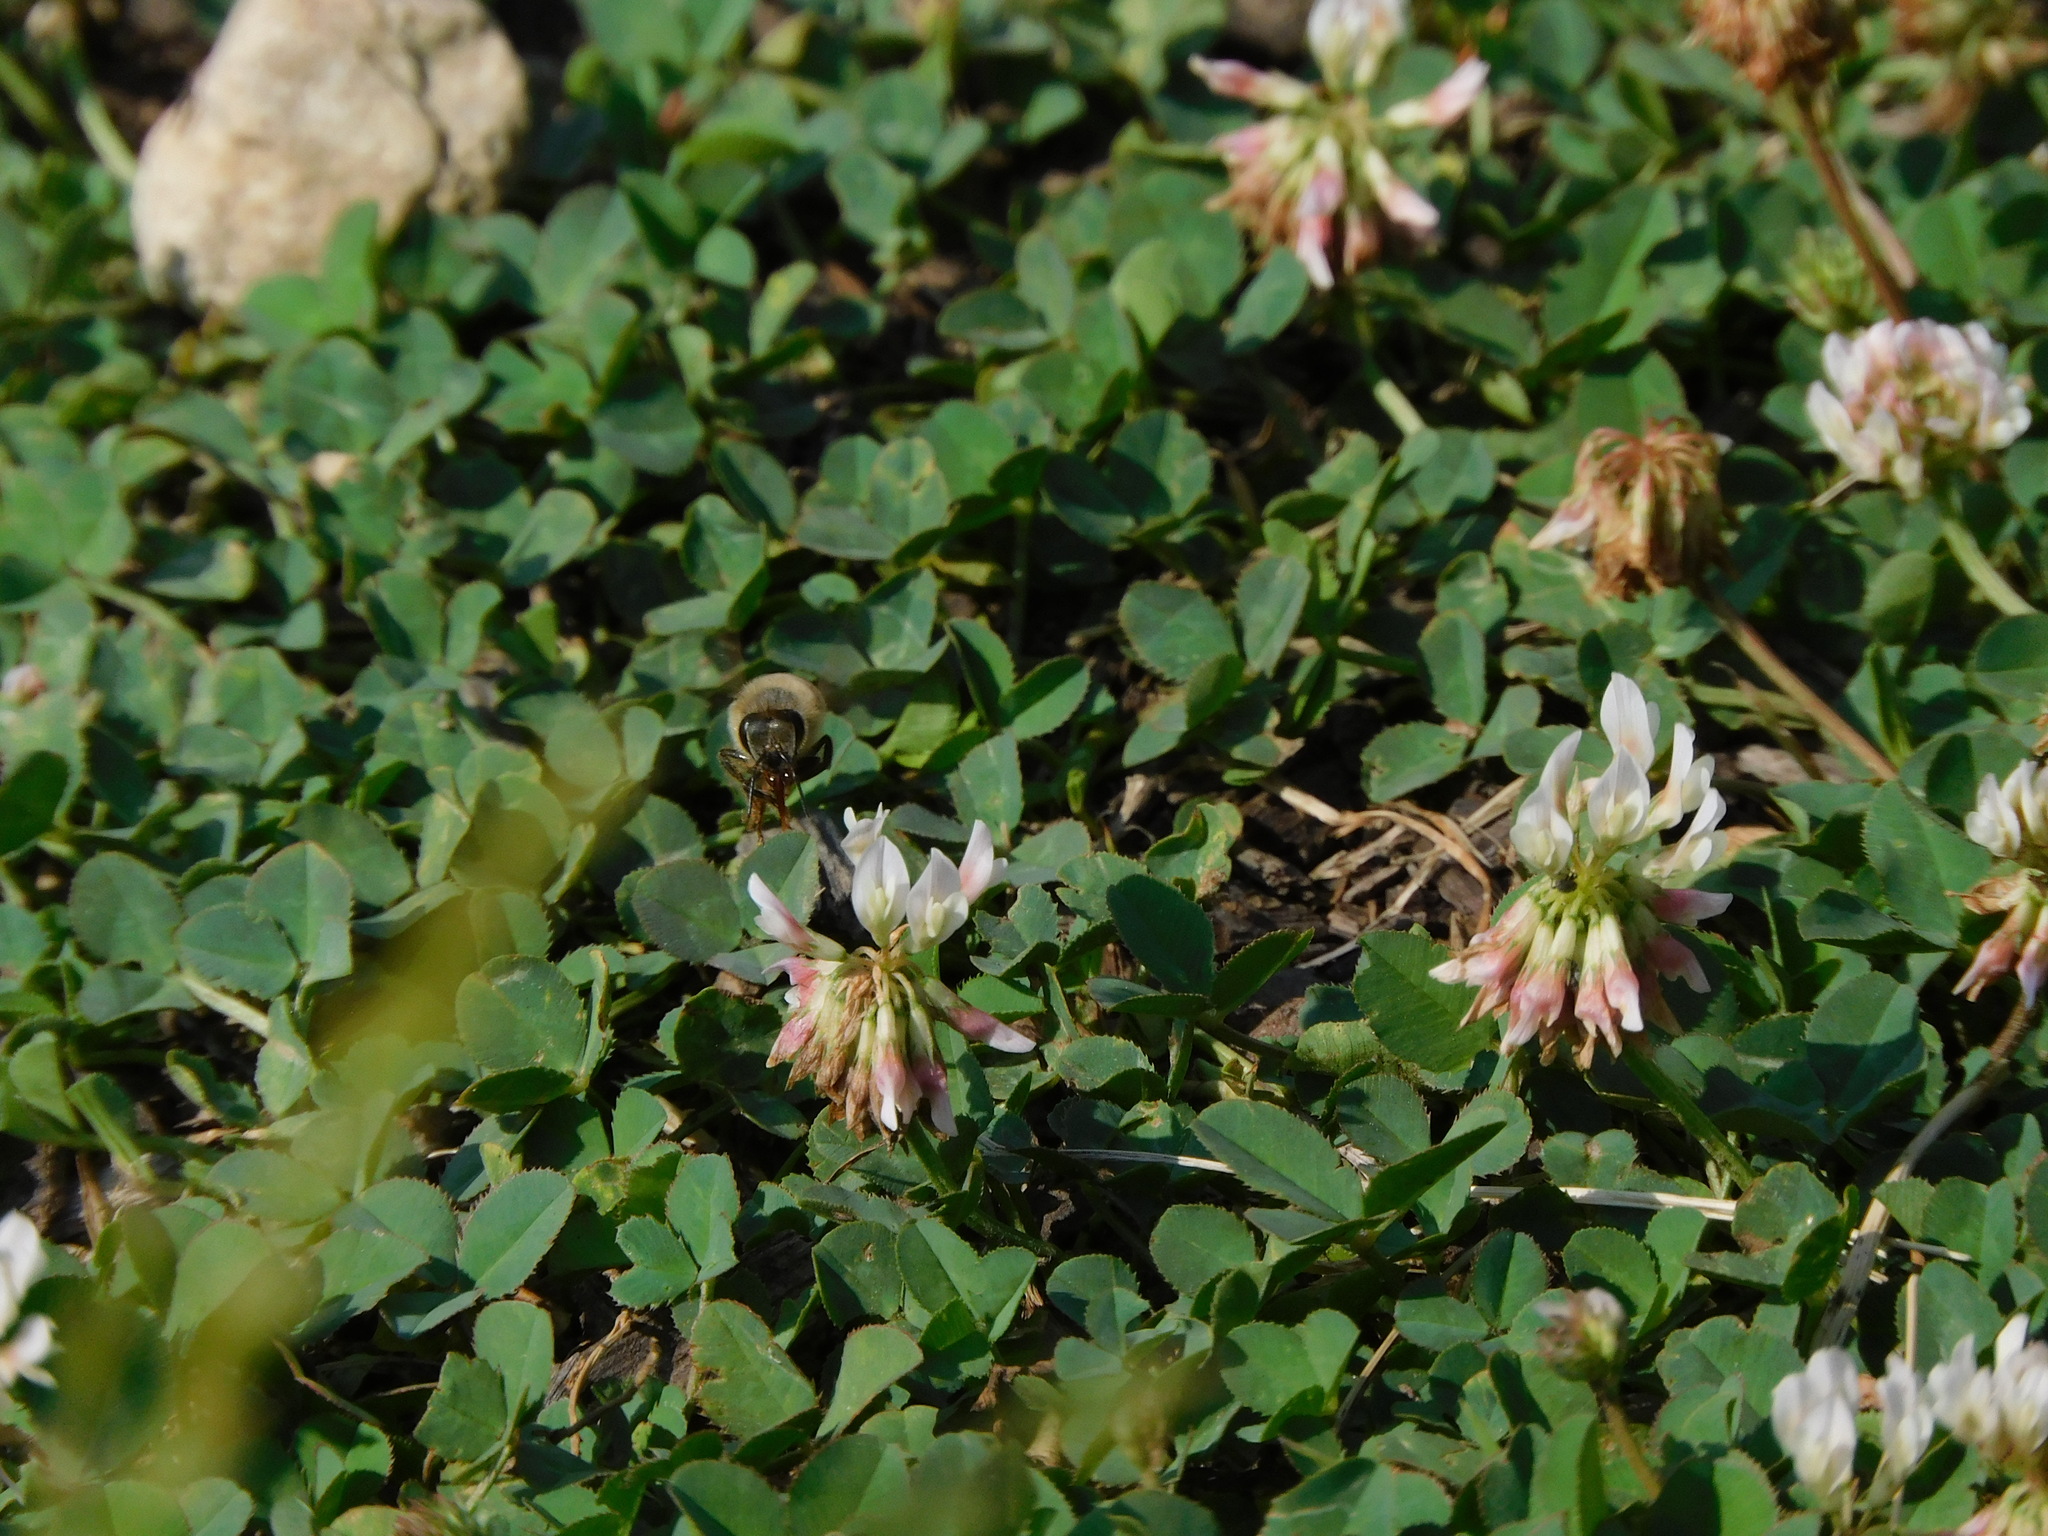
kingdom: Animalia
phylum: Arthropoda
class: Insecta
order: Hymenoptera
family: Apidae
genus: Apis
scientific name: Apis mellifera
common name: Honey bee
